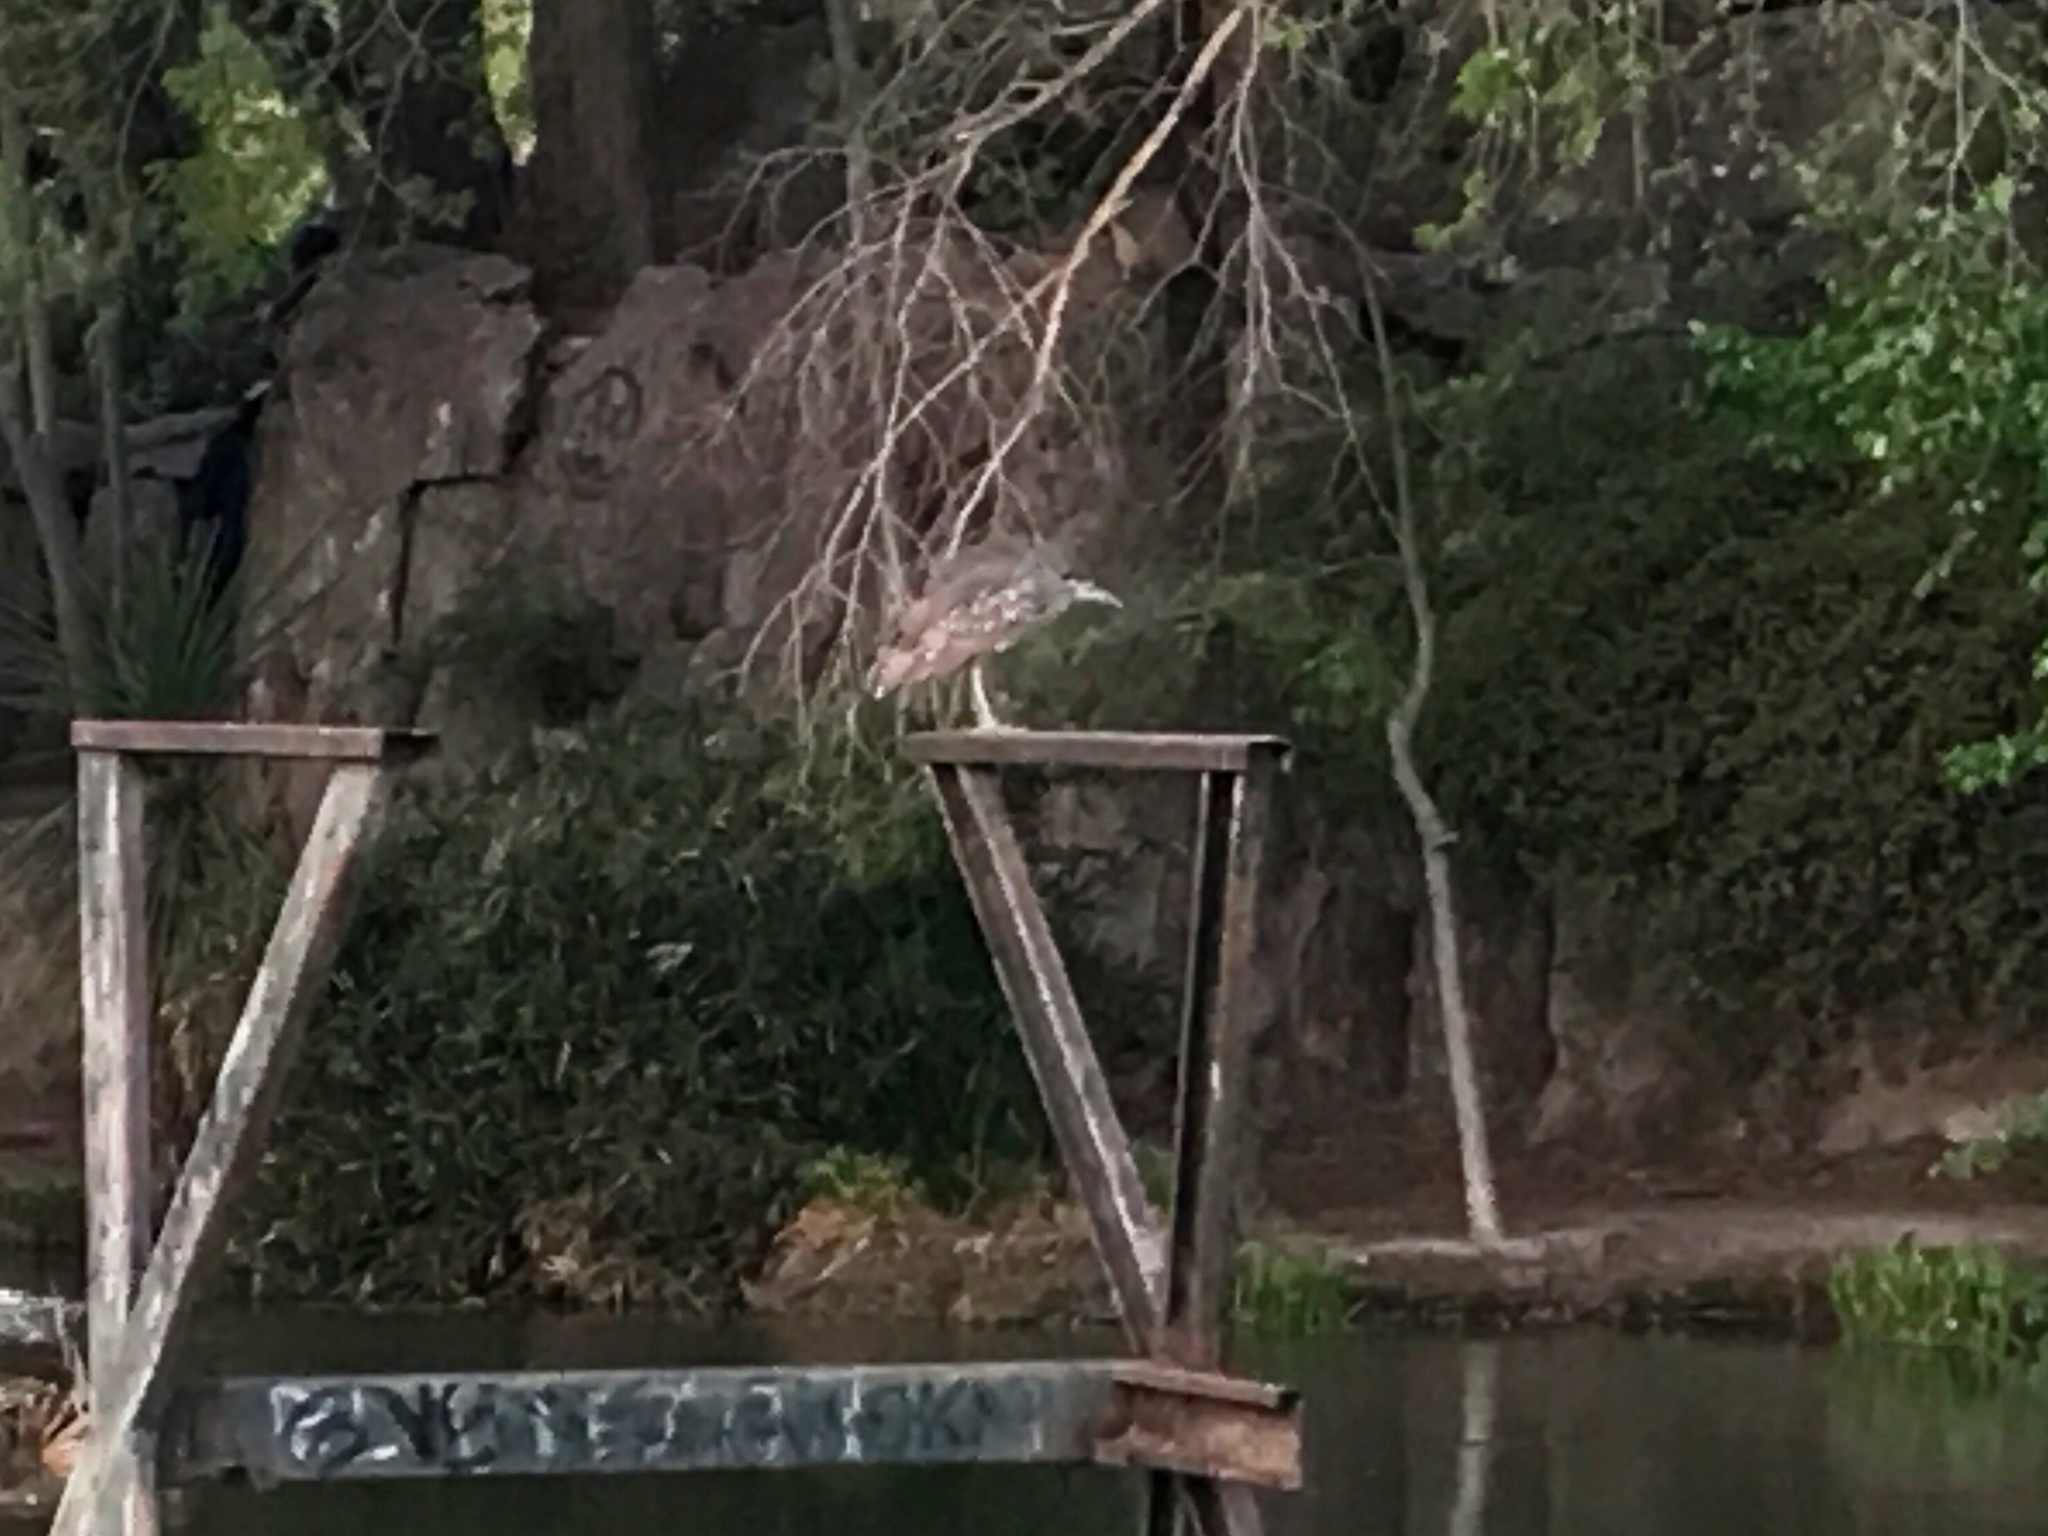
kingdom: Animalia
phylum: Chordata
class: Aves
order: Pelecaniformes
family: Ardeidae
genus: Nycticorax
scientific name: Nycticorax nycticorax
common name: Black-crowned night heron
